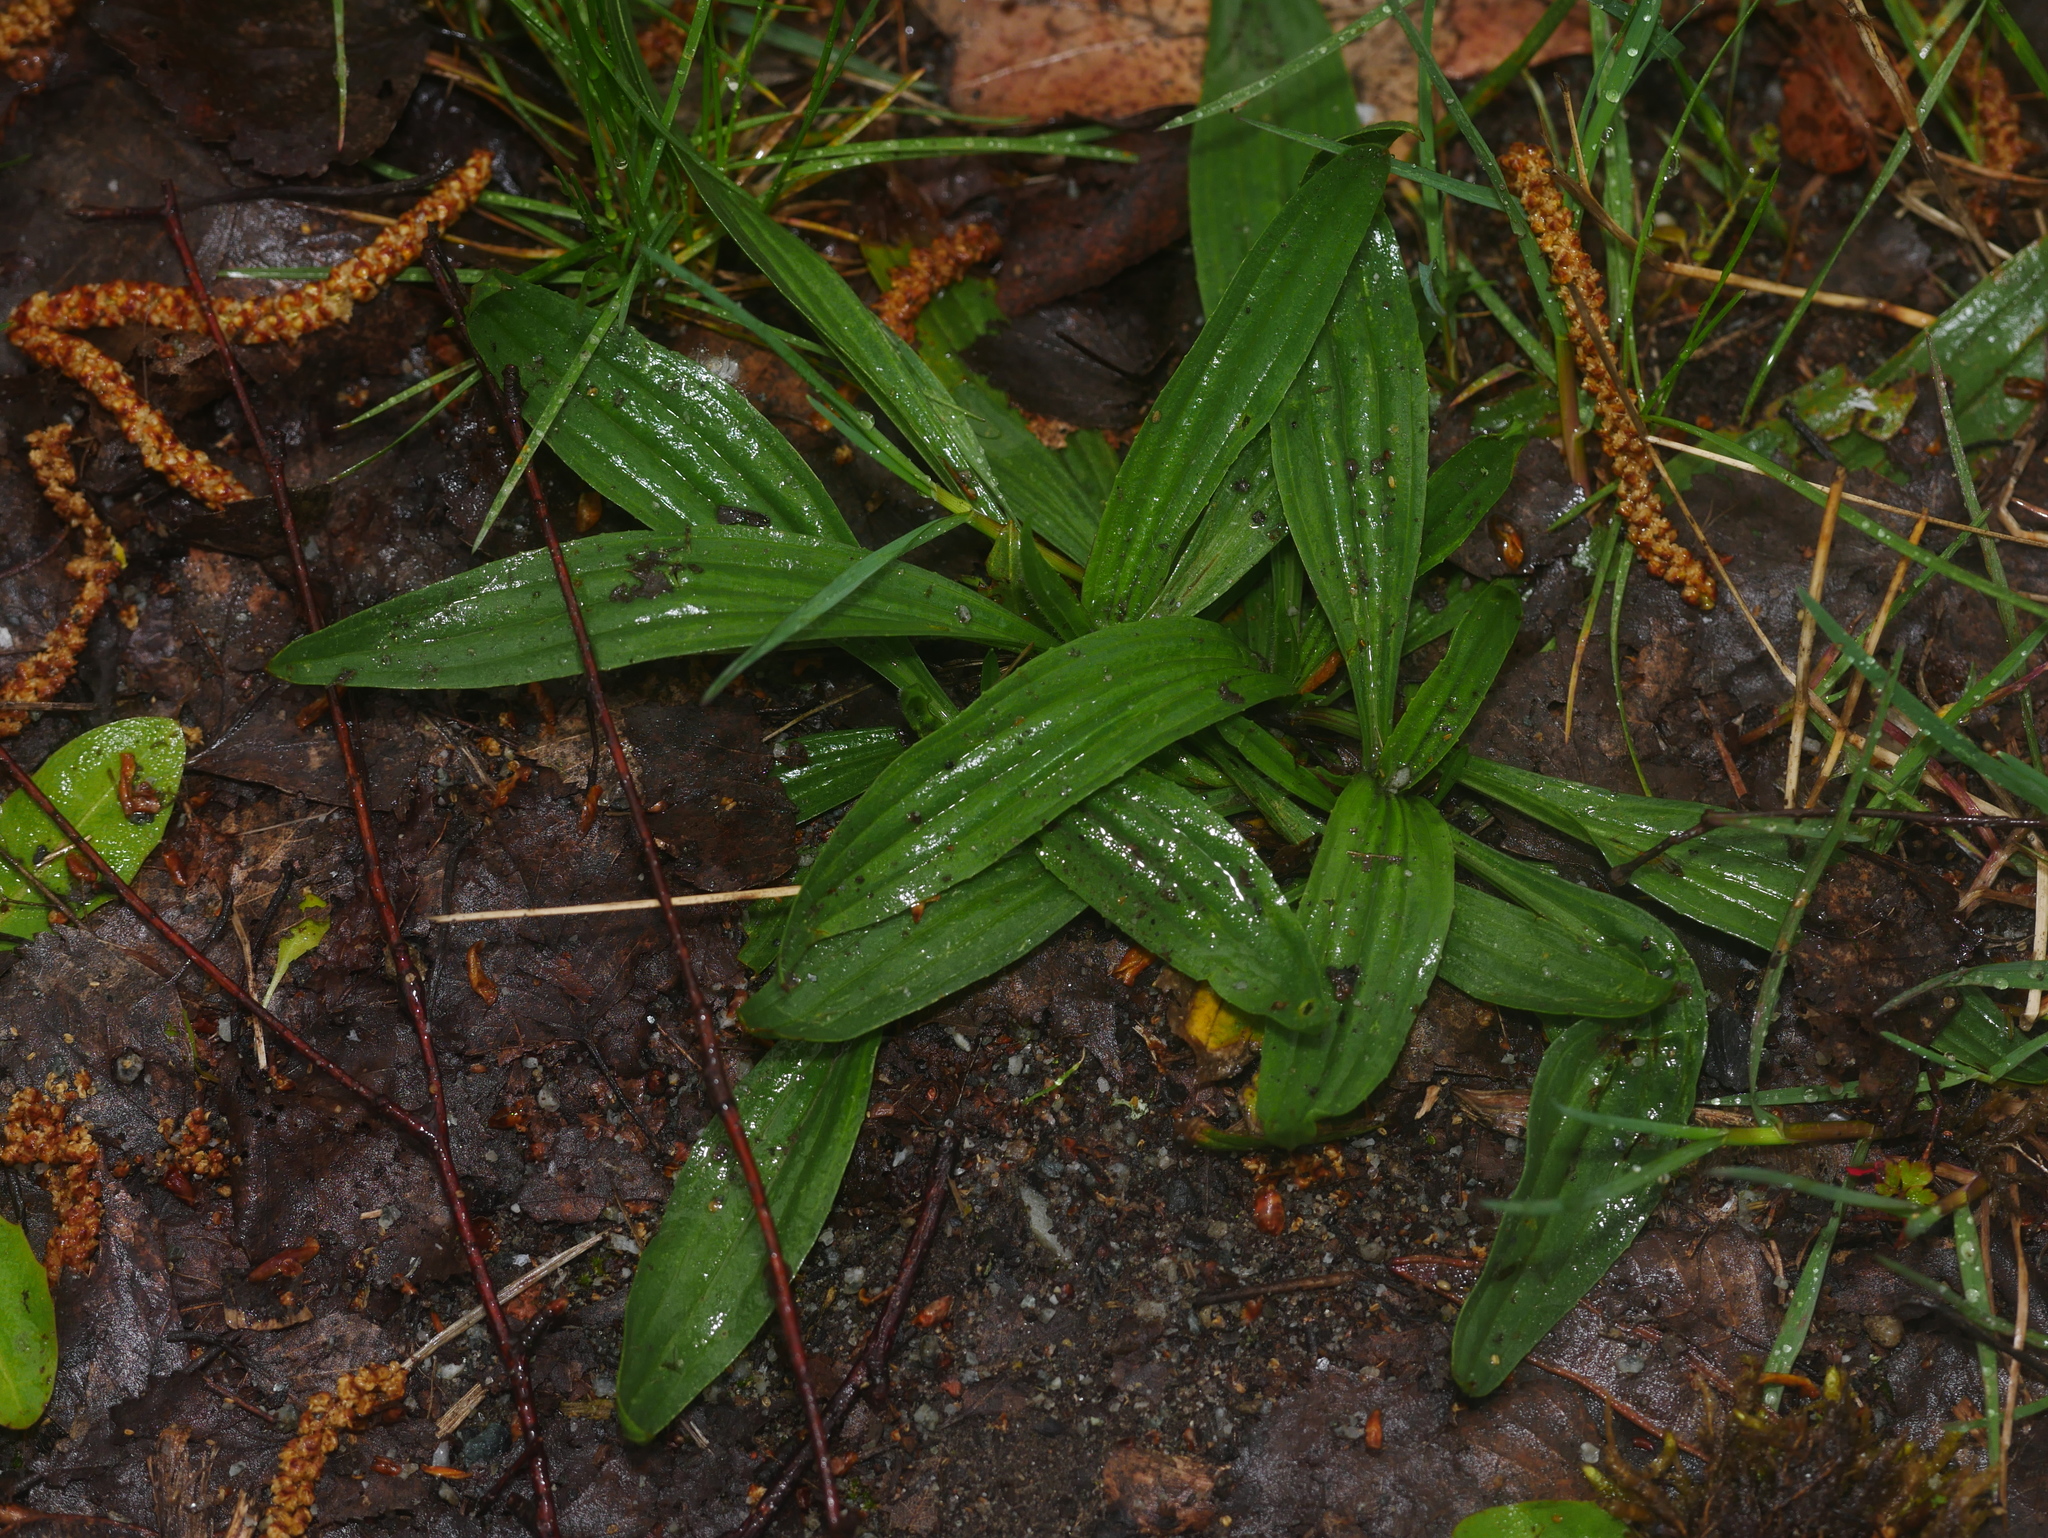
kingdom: Plantae
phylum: Tracheophyta
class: Magnoliopsida
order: Lamiales
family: Plantaginaceae
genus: Plantago
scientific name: Plantago lanceolata
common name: Ribwort plantain
